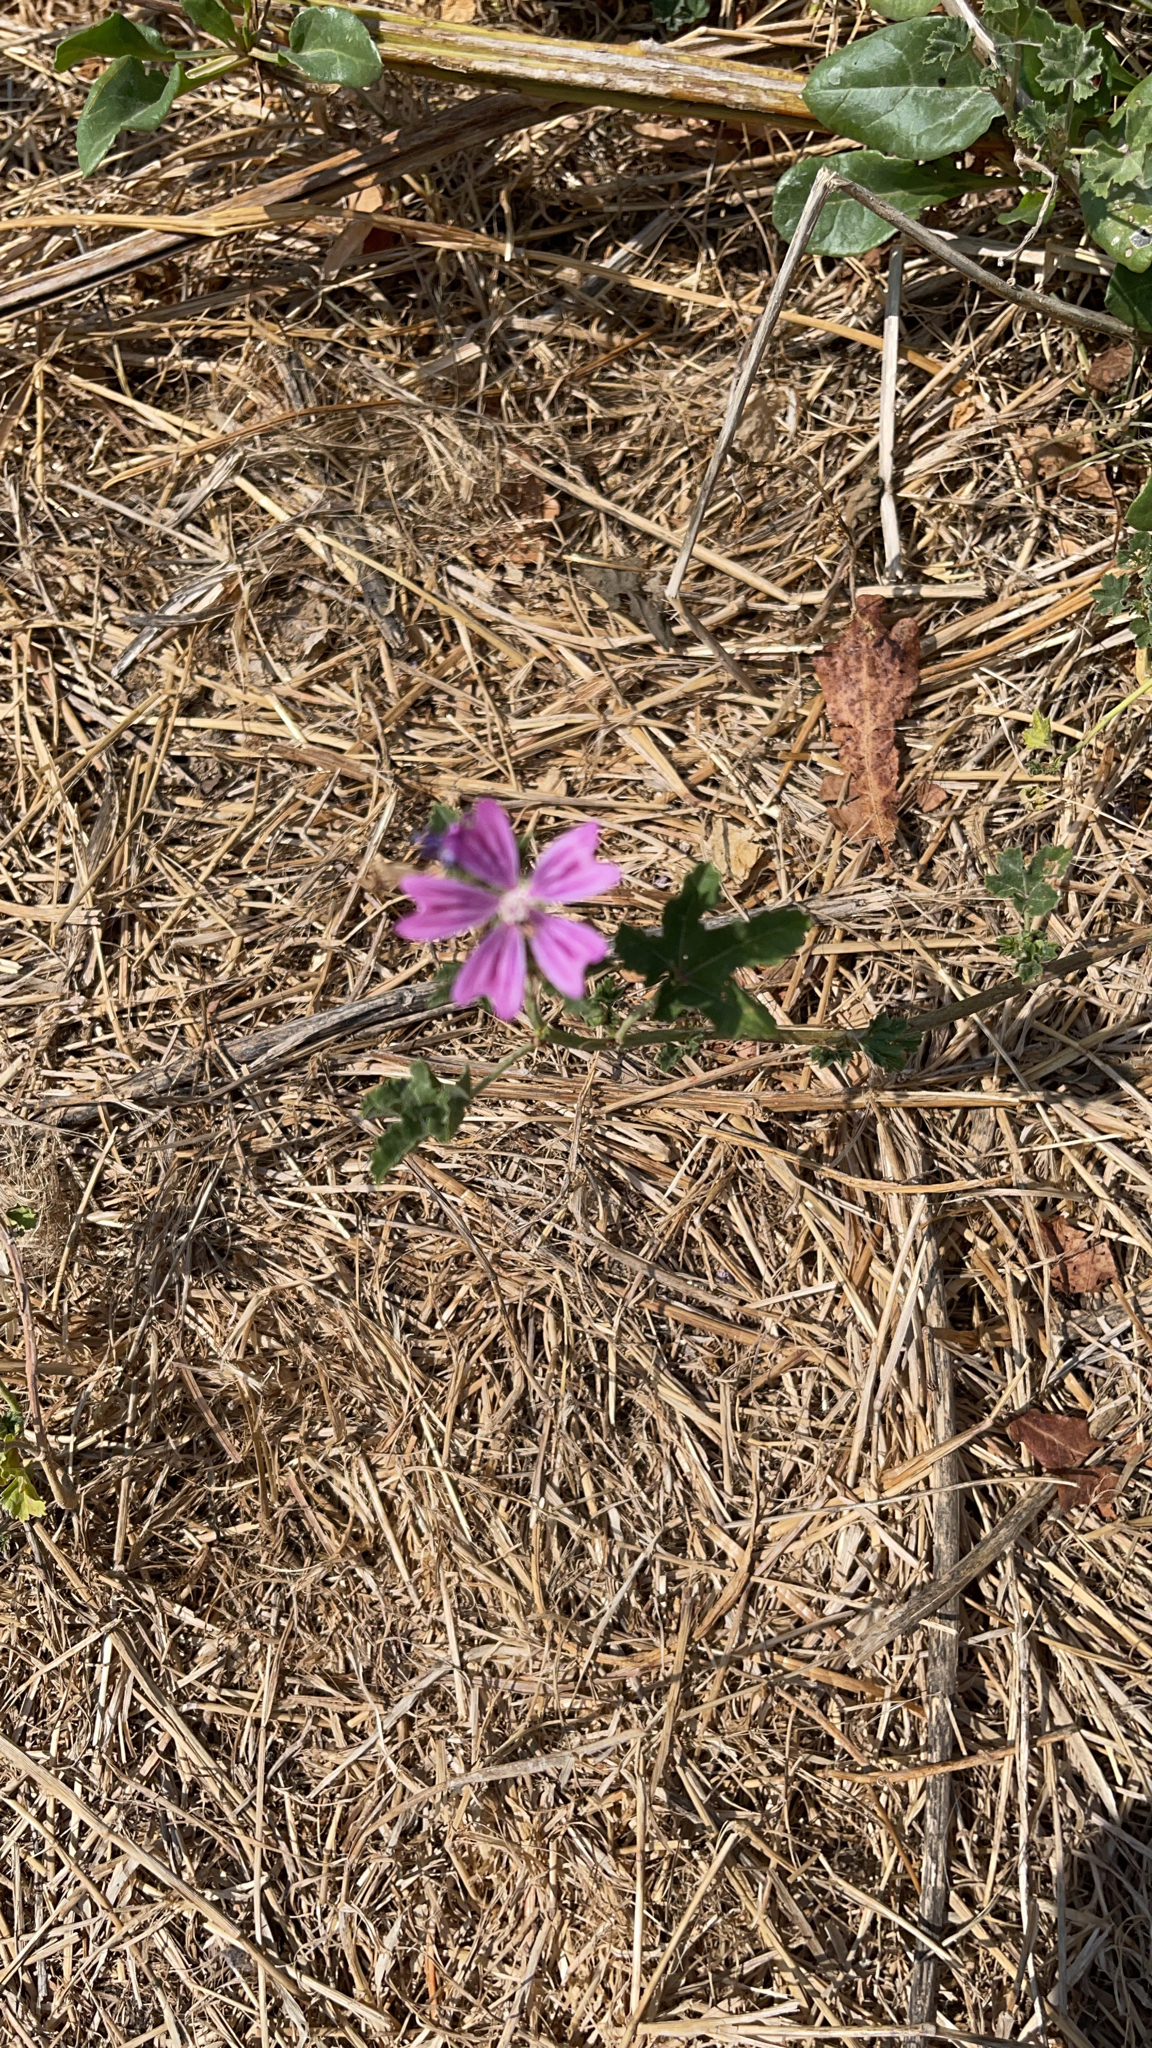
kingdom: Plantae
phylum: Tracheophyta
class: Magnoliopsida
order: Malvales
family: Malvaceae
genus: Malva
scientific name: Malva sylvestris
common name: Common mallow
